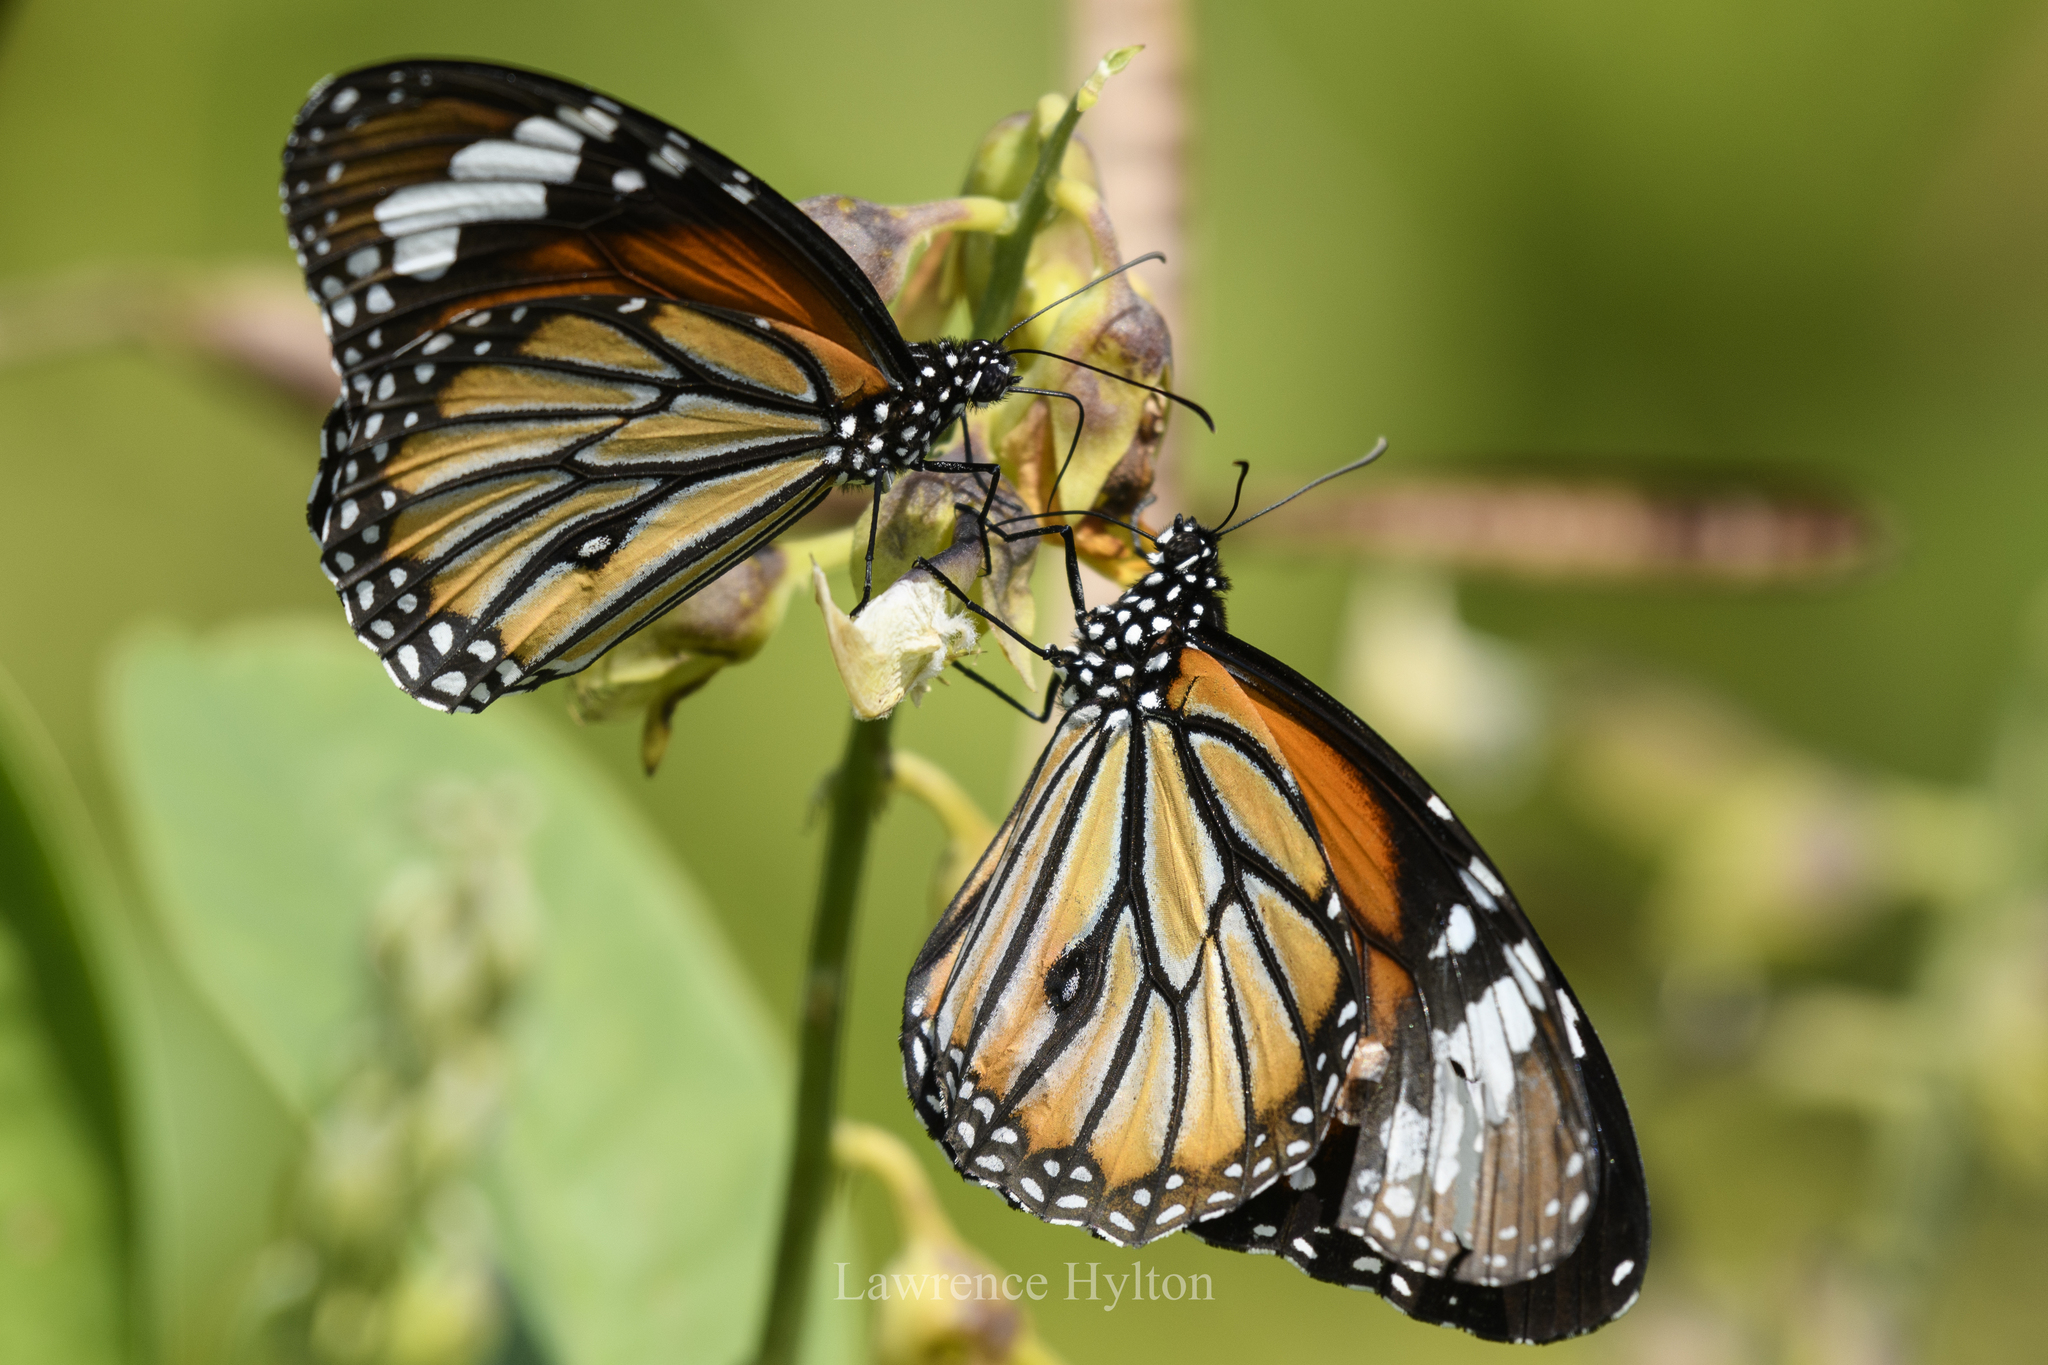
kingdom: Animalia
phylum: Arthropoda
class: Insecta
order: Lepidoptera
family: Nymphalidae
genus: Danaus
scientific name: Danaus genutia
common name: Common tiger butterfly
